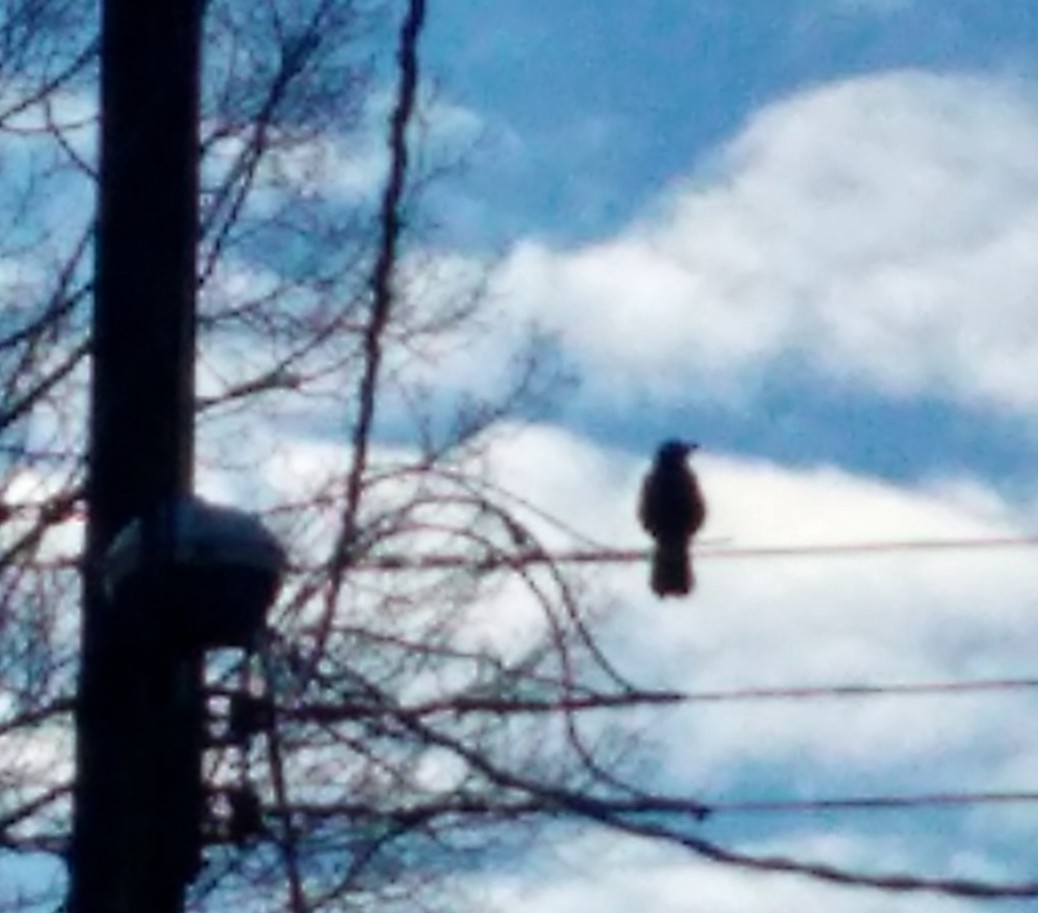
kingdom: Animalia
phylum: Chordata
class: Aves
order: Passeriformes
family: Corvidae
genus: Corvus
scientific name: Corvus brachyrhynchos
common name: American crow
